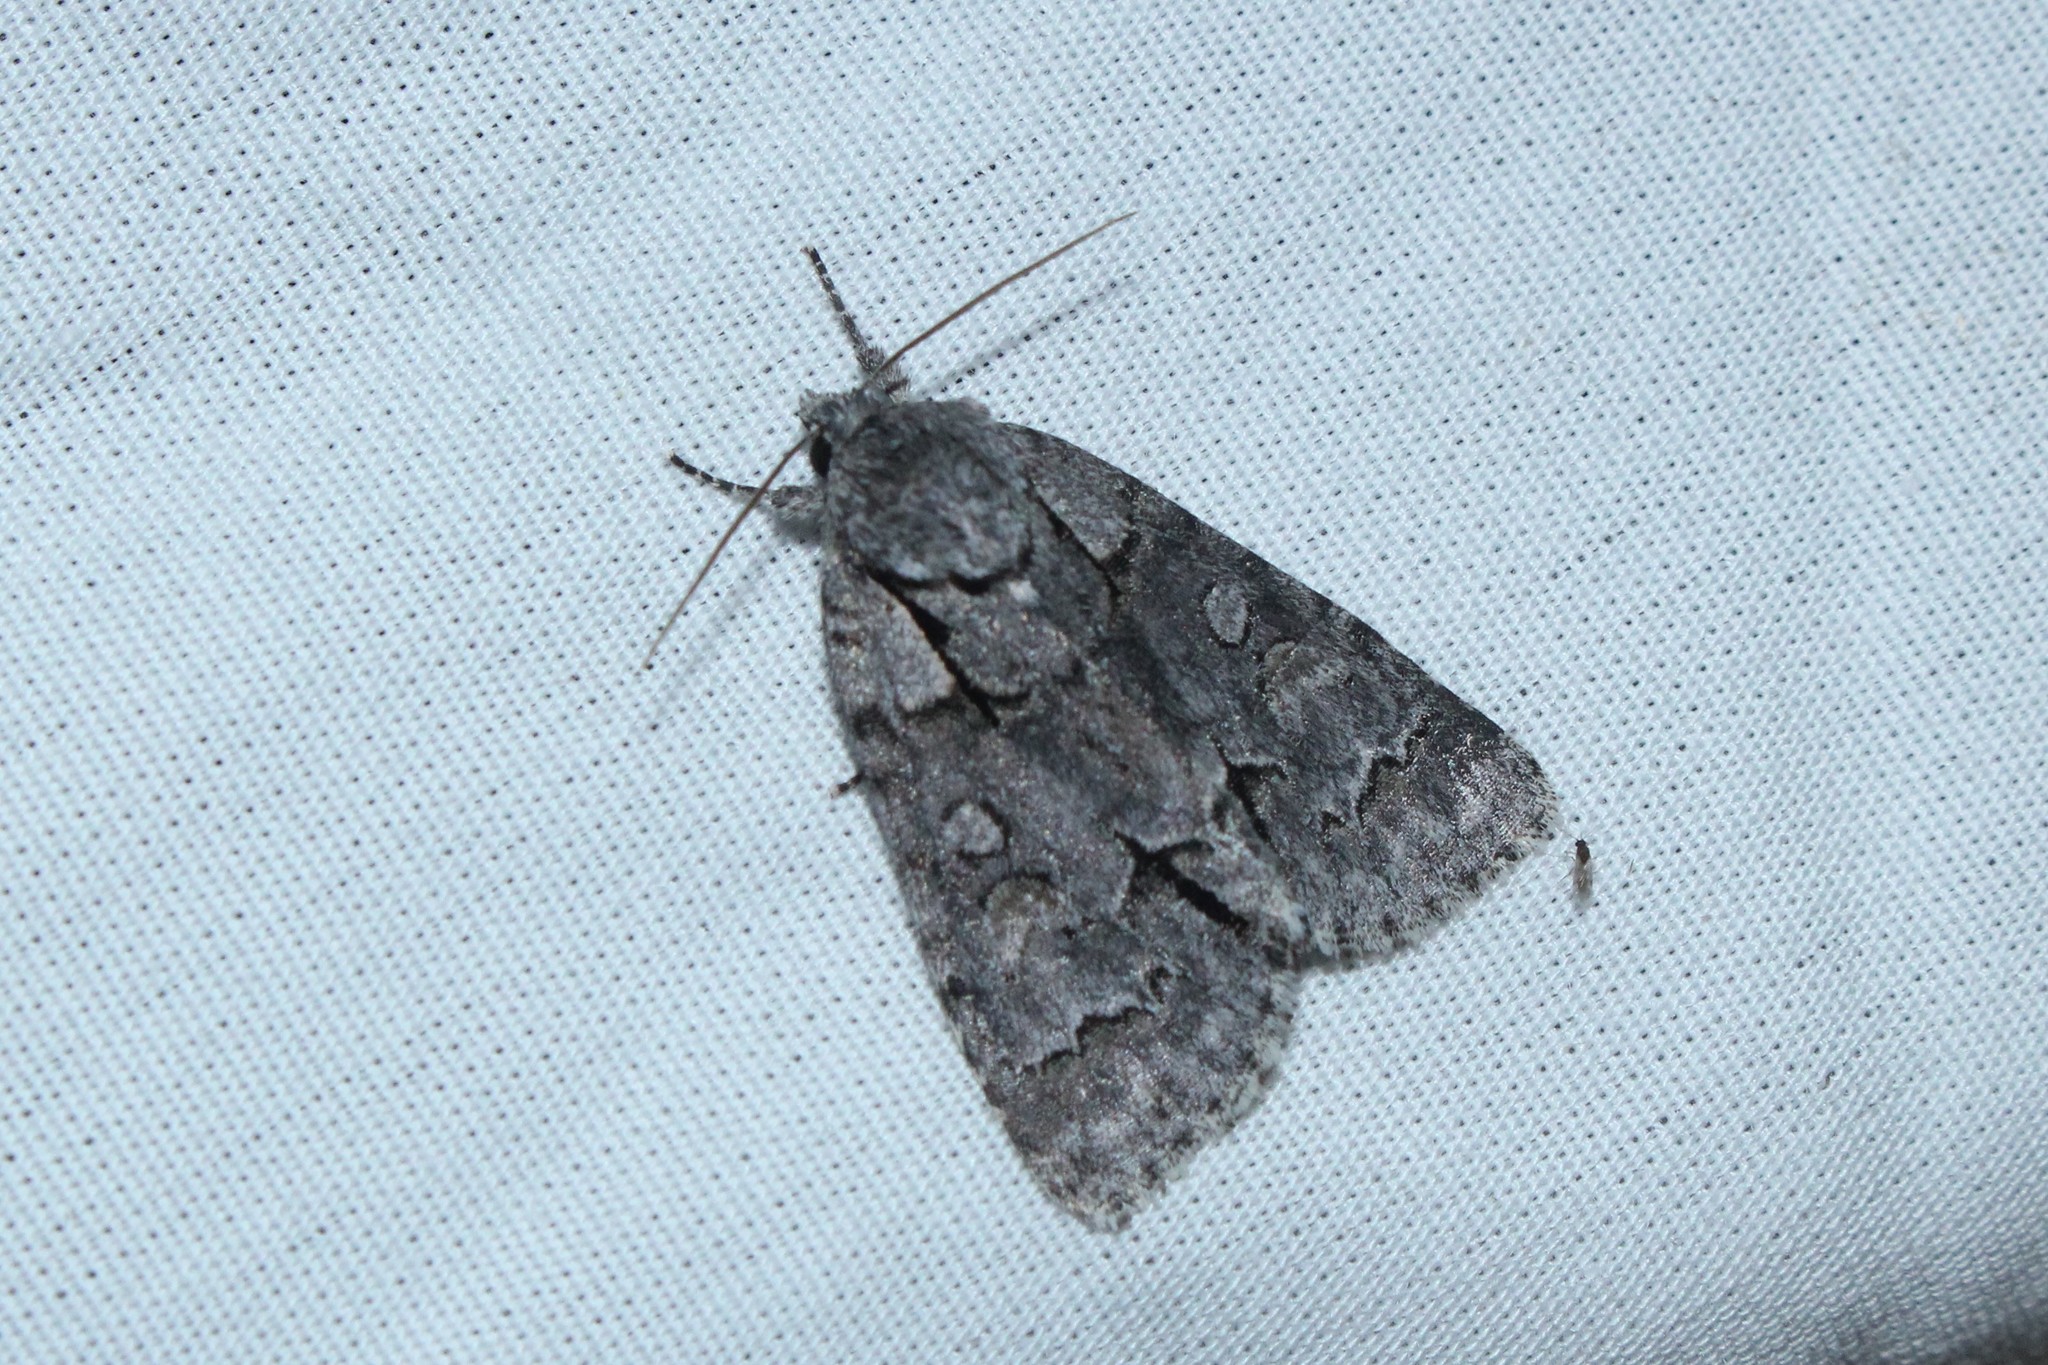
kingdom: Animalia
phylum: Arthropoda
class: Insecta
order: Lepidoptera
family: Noctuidae
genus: Acronicta
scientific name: Acronicta grisea
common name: Gray dagger
